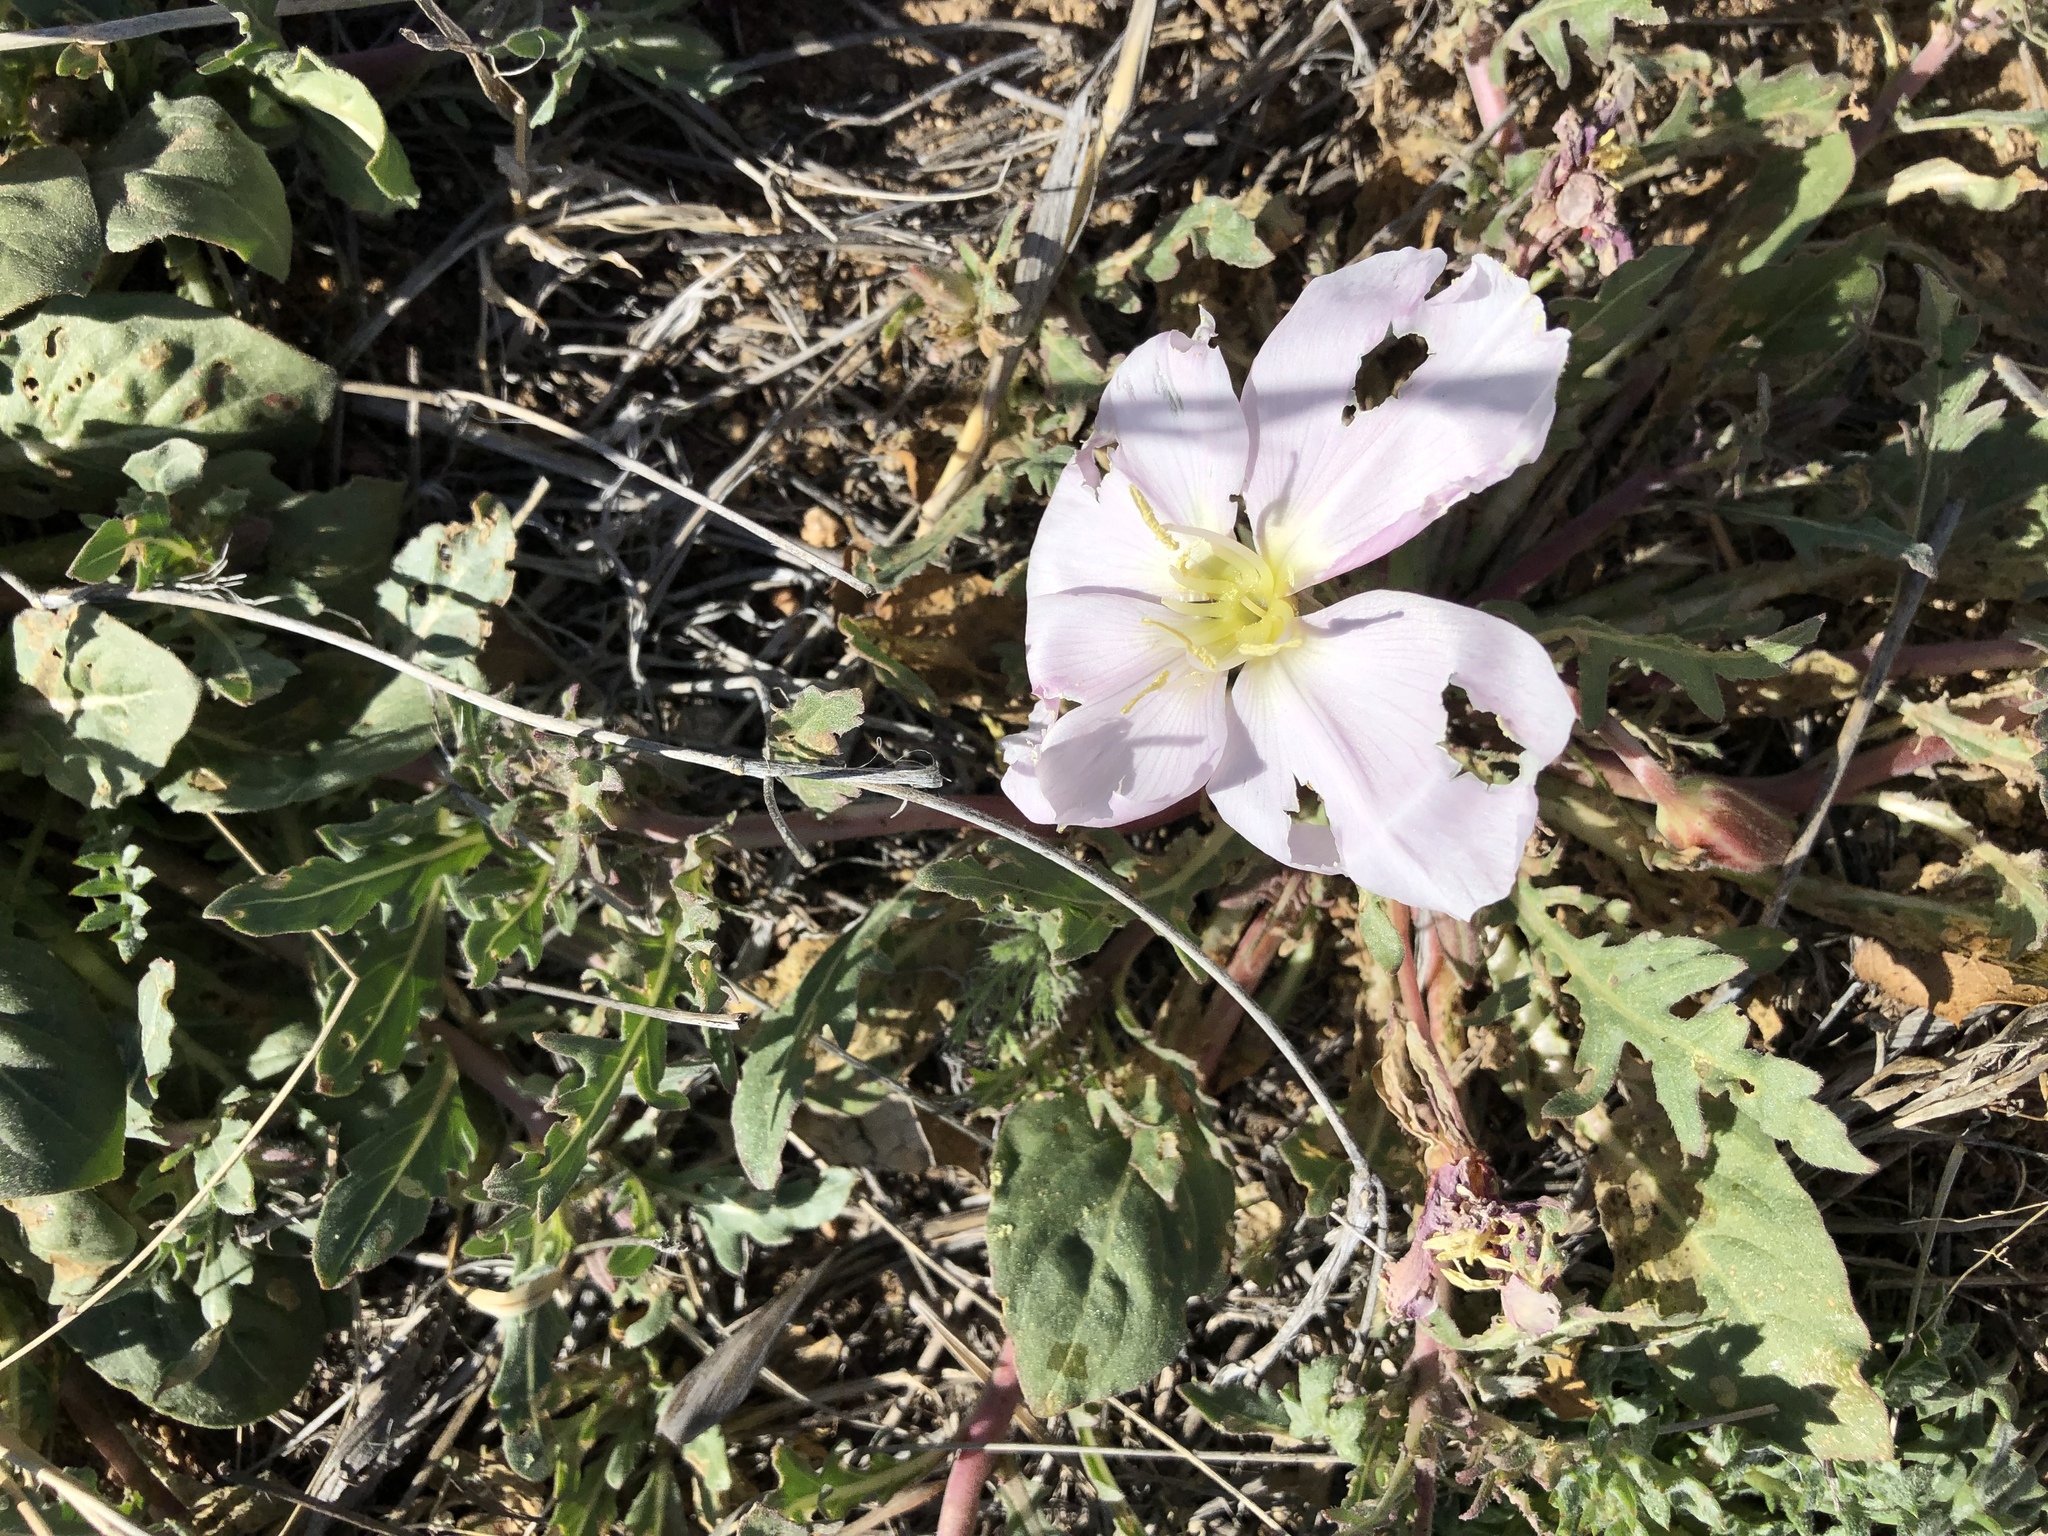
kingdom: Plantae
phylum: Tracheophyta
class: Magnoliopsida
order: Myrtales
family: Onagraceae
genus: Oenothera
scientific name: Oenothera albicaulis
